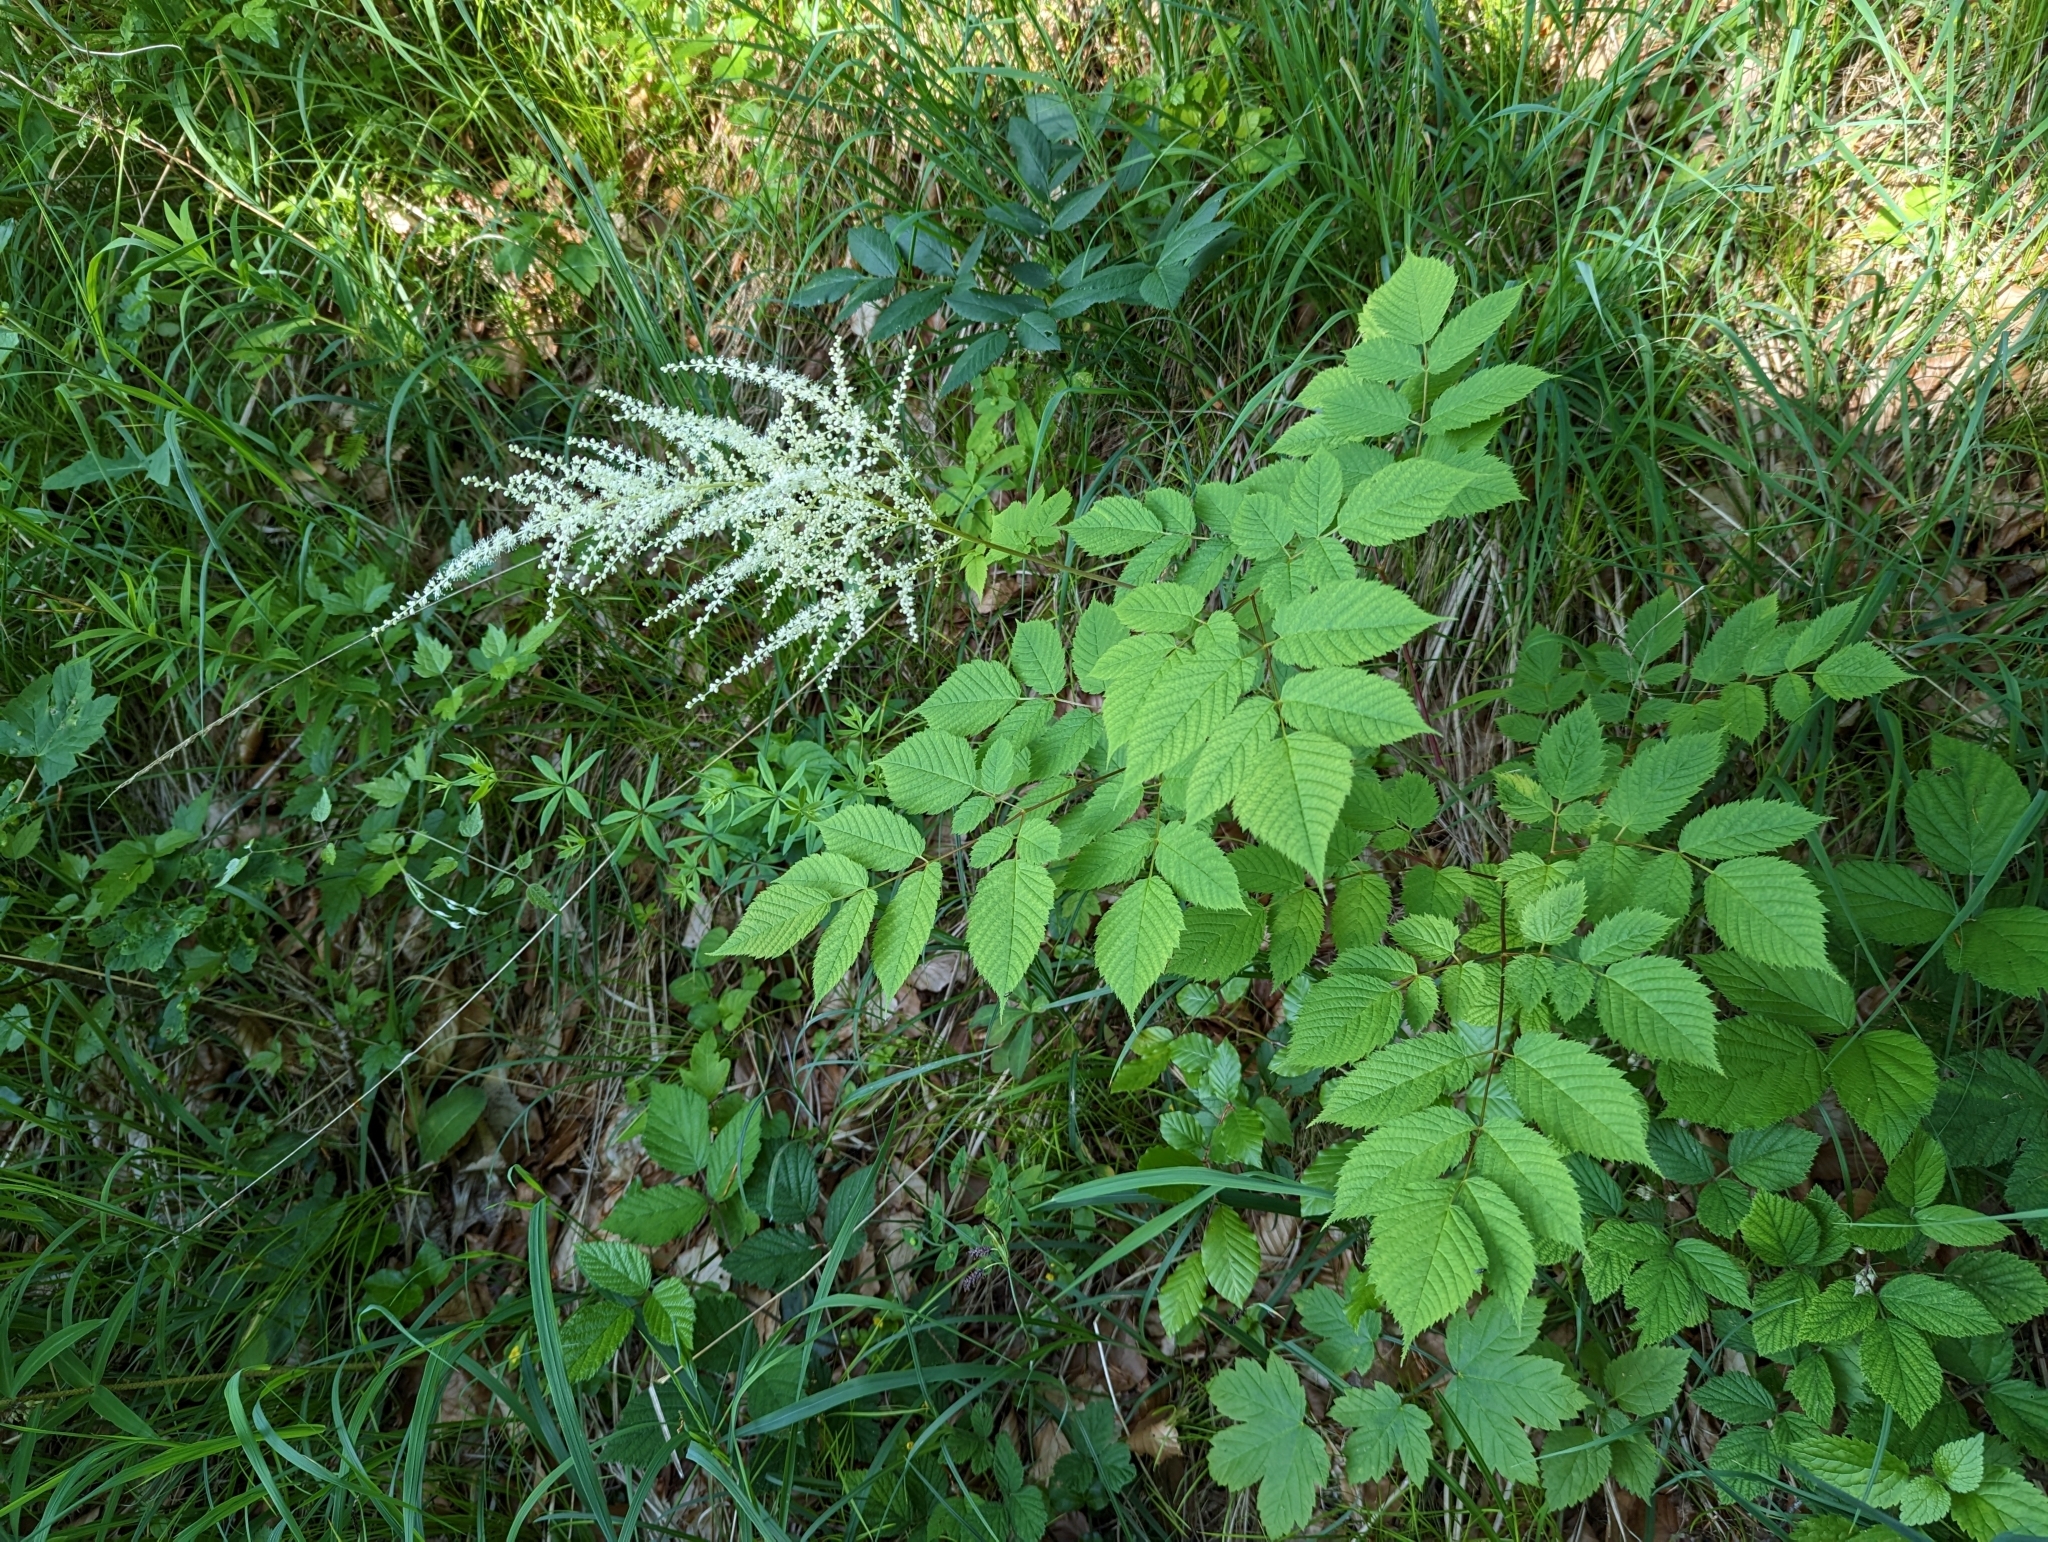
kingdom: Plantae
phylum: Tracheophyta
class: Magnoliopsida
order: Rosales
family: Rosaceae
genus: Aruncus
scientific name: Aruncus dioicus
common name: Buck's-beard
